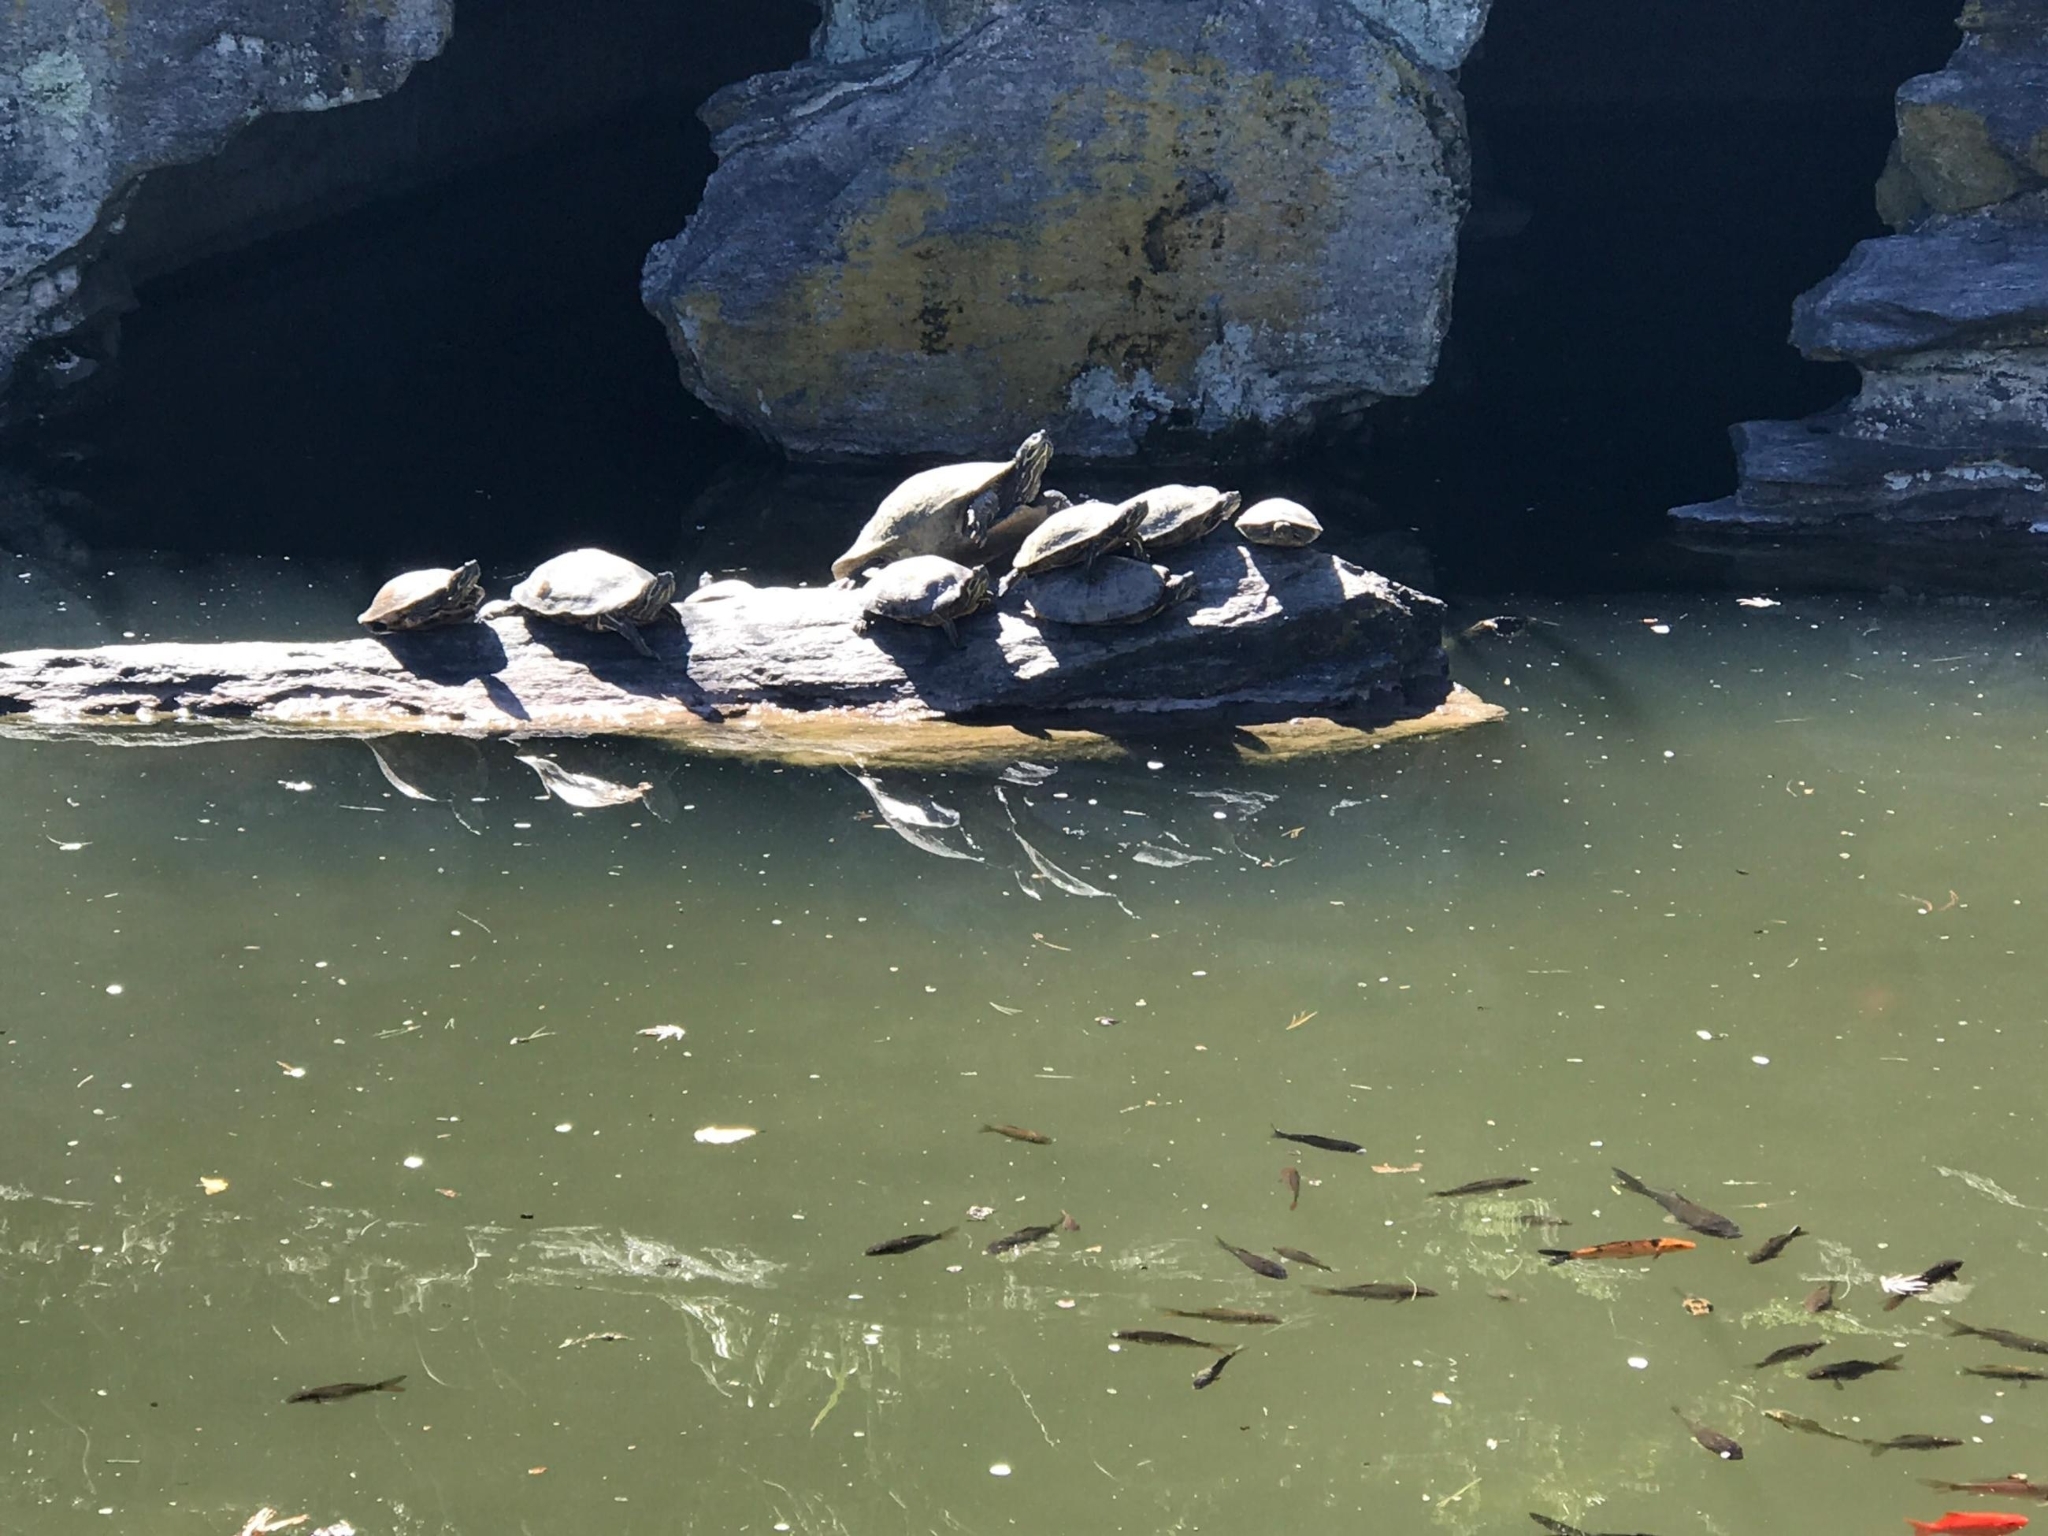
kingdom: Animalia
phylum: Chordata
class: Testudines
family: Emydidae
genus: Trachemys
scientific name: Trachemys scripta
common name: Slider
